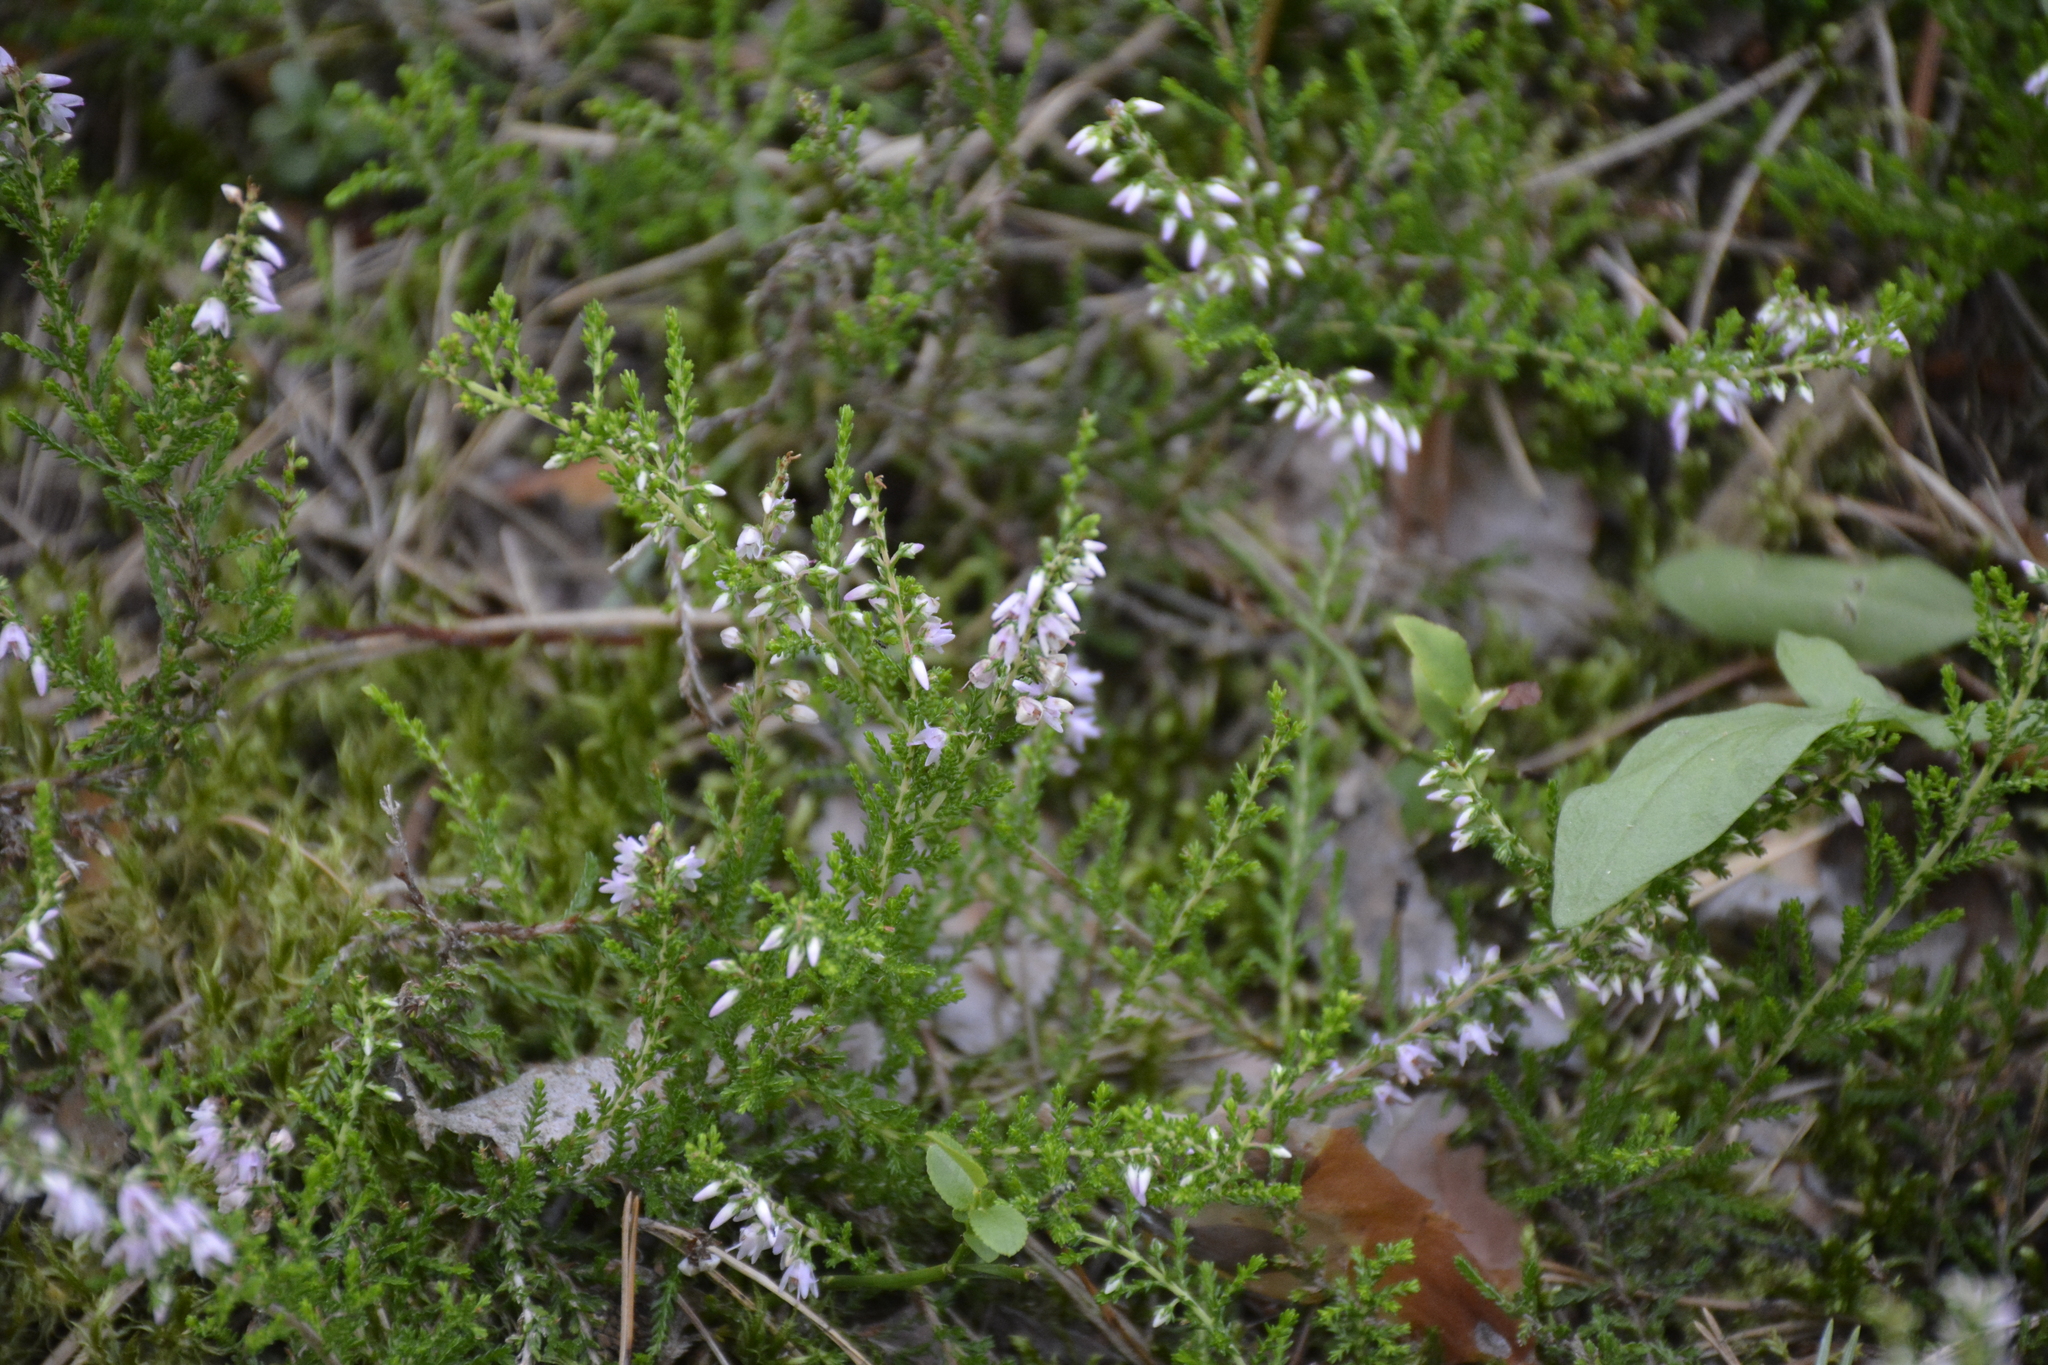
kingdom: Plantae
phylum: Tracheophyta
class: Magnoliopsida
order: Ericales
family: Ericaceae
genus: Calluna
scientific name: Calluna vulgaris
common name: Heather
